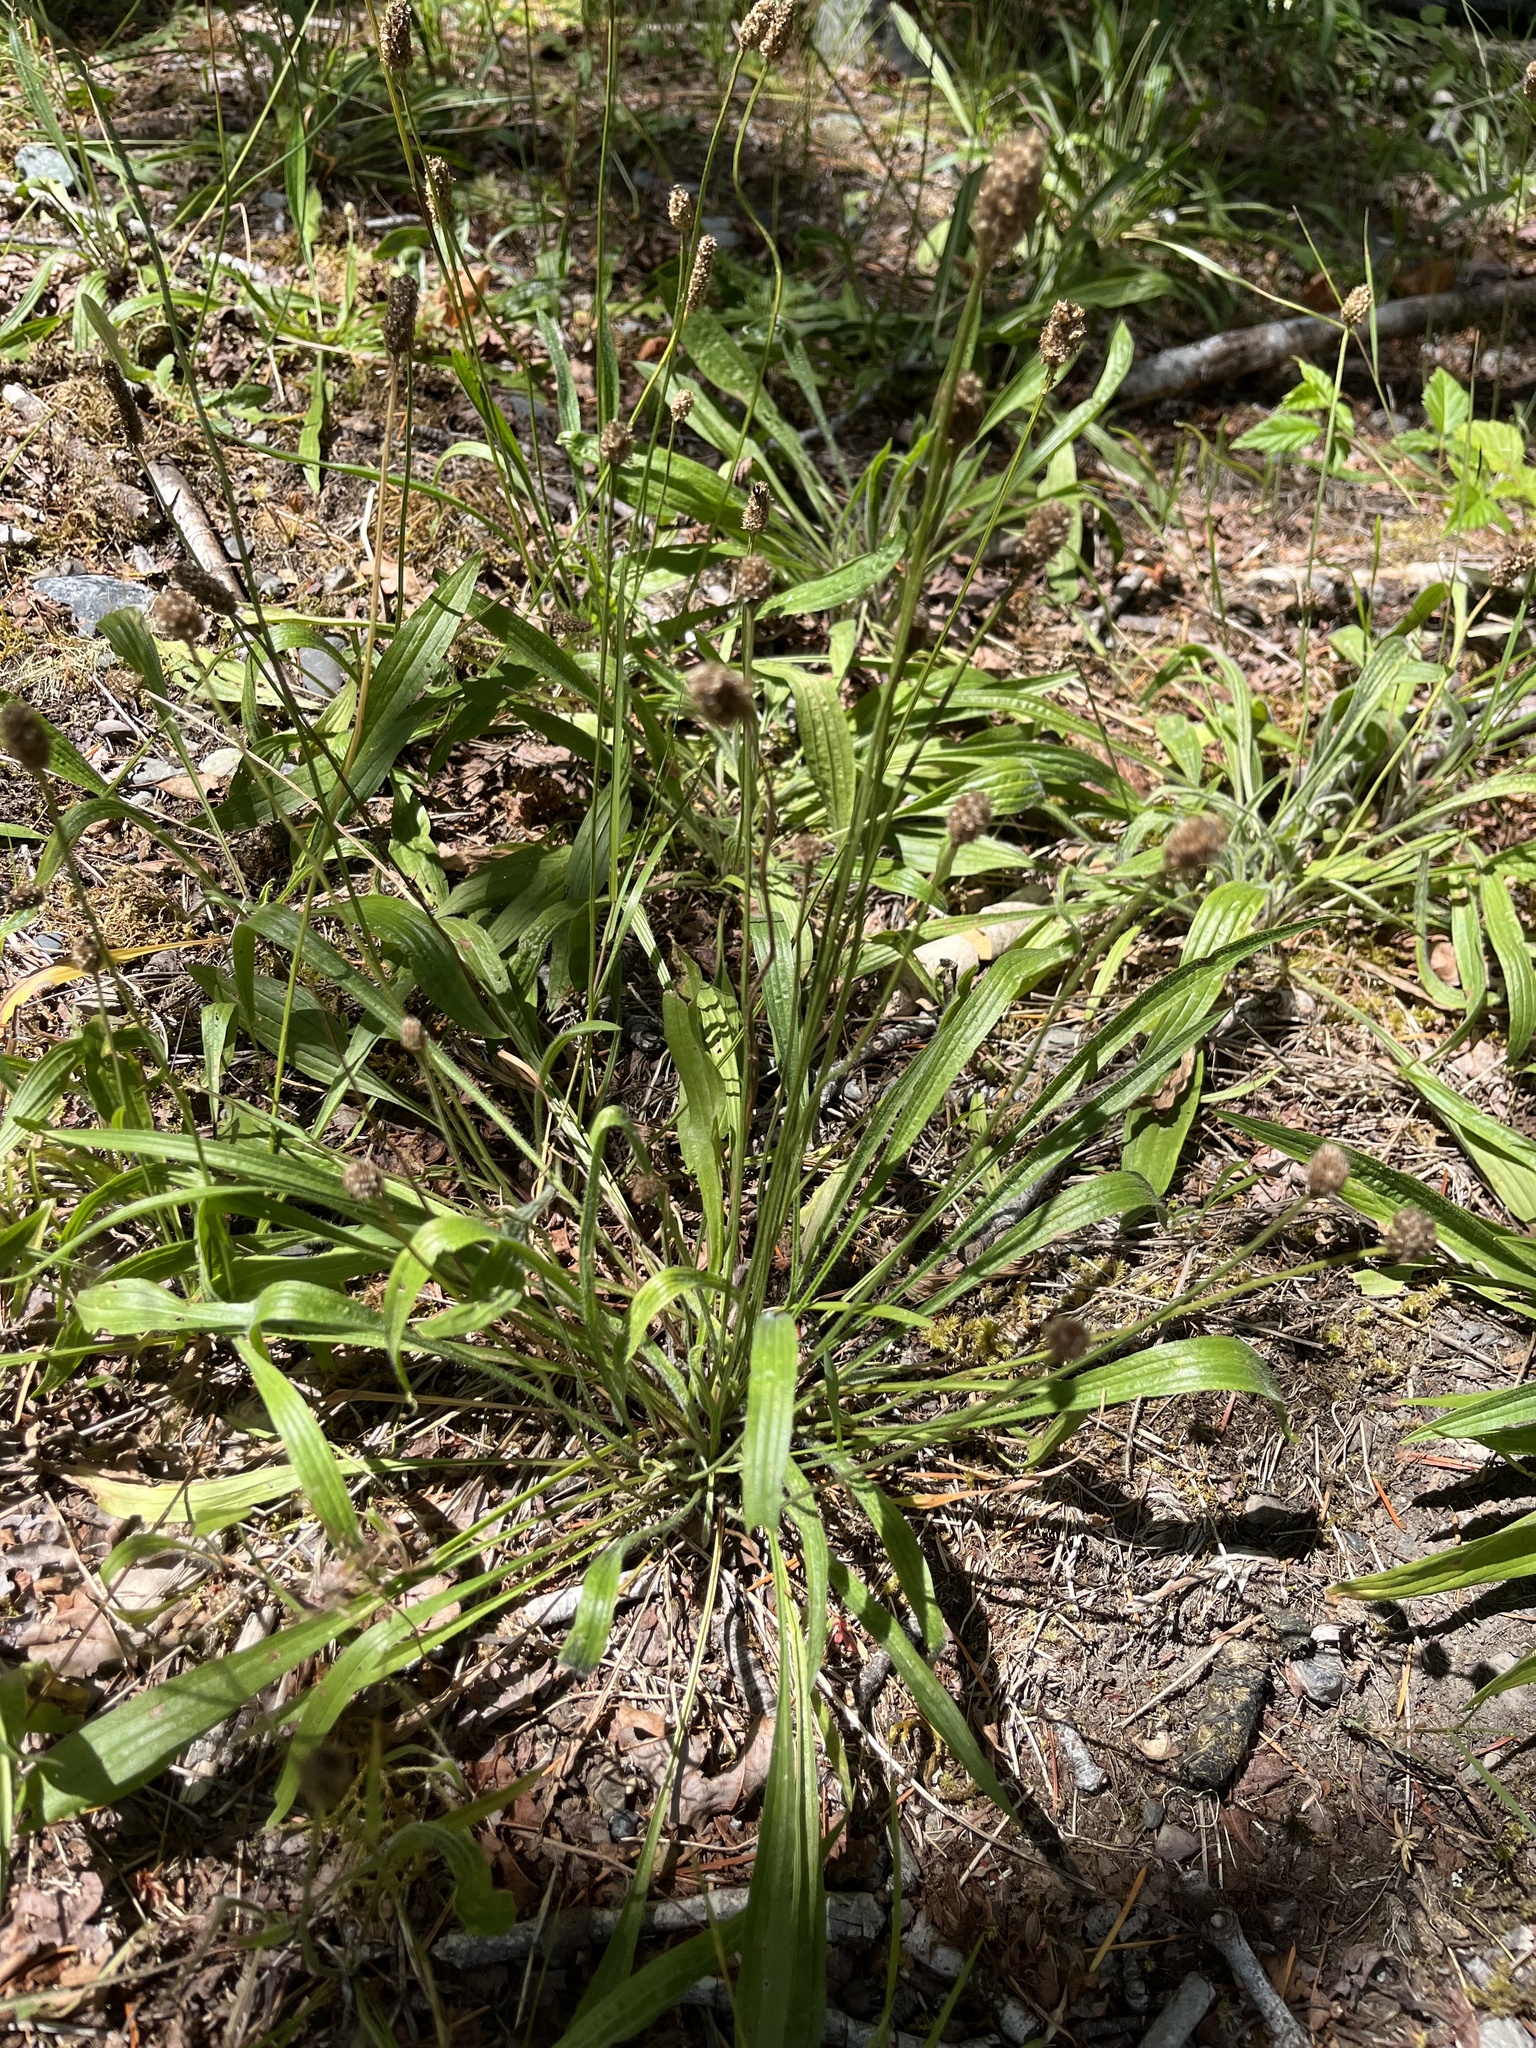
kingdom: Plantae
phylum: Tracheophyta
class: Magnoliopsida
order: Lamiales
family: Plantaginaceae
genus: Plantago
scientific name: Plantago lanceolata
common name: Ribwort plantain
